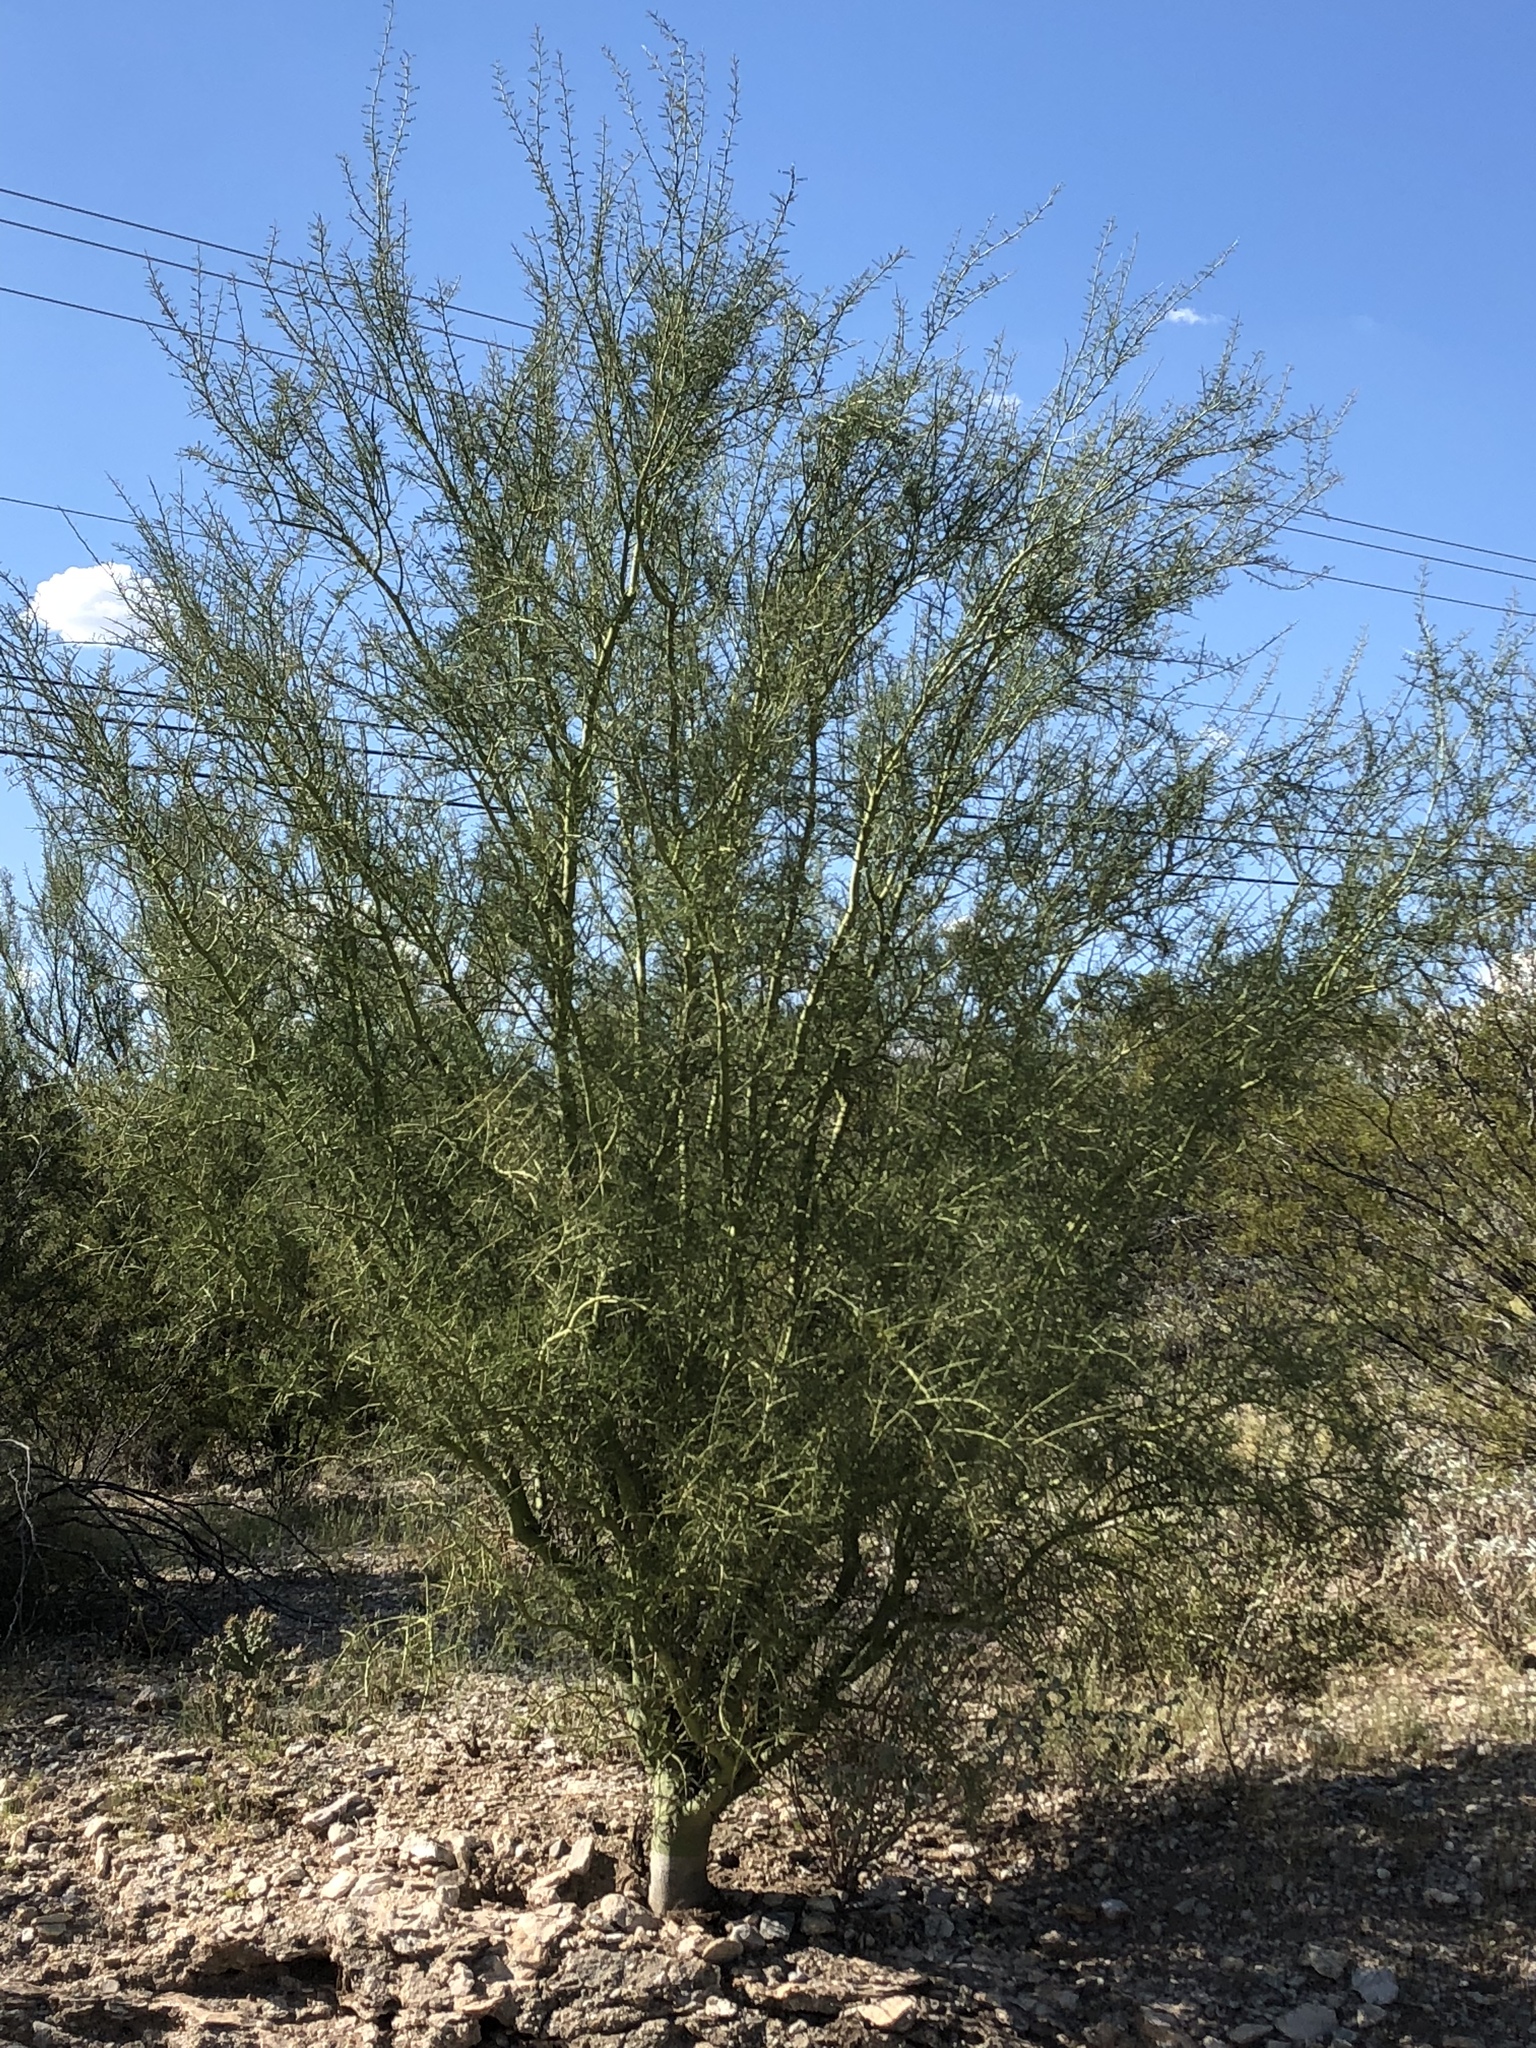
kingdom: Plantae
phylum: Tracheophyta
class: Magnoliopsida
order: Fabales
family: Fabaceae
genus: Parkinsonia
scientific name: Parkinsonia microphylla
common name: Yellow paloverde
